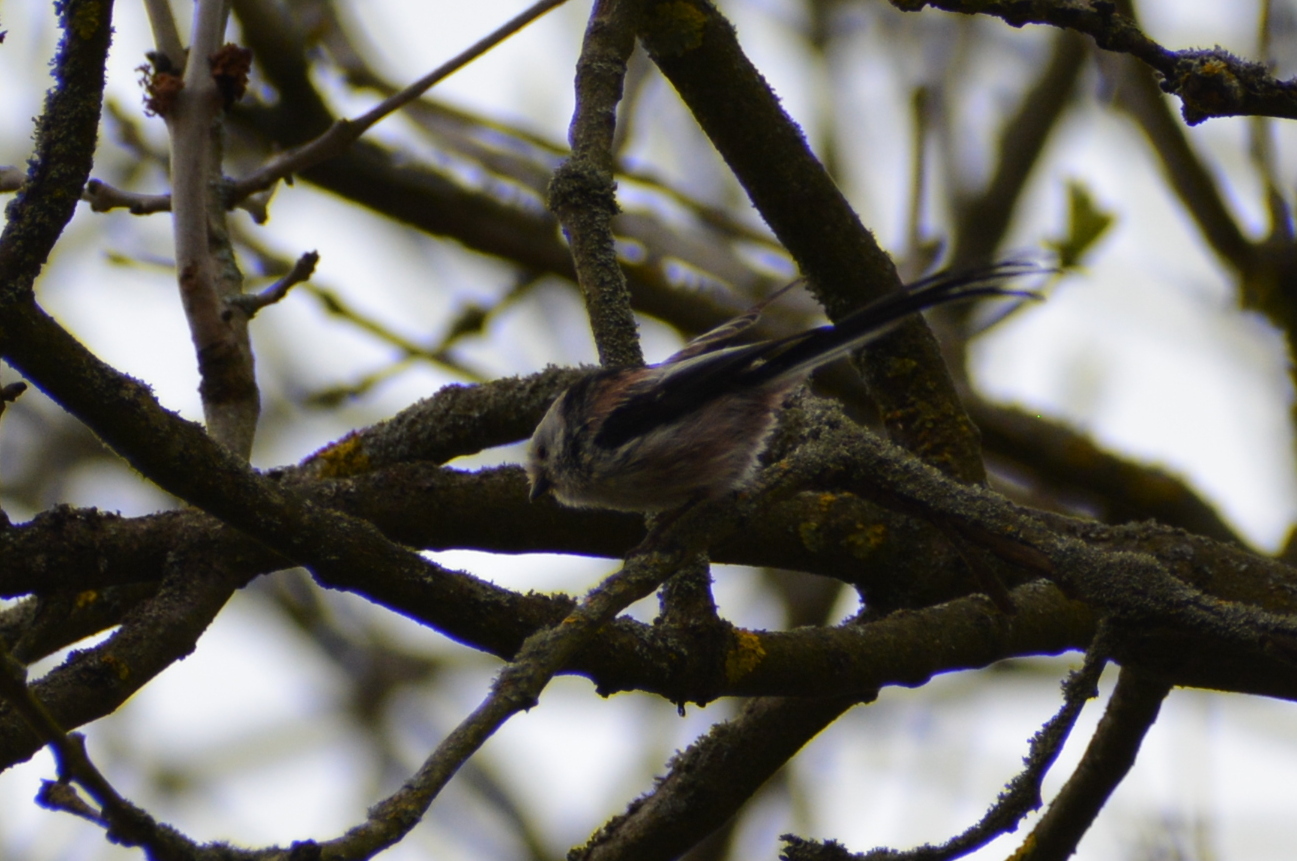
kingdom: Animalia
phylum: Chordata
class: Aves
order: Passeriformes
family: Aegithalidae
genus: Aegithalos
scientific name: Aegithalos caudatus
